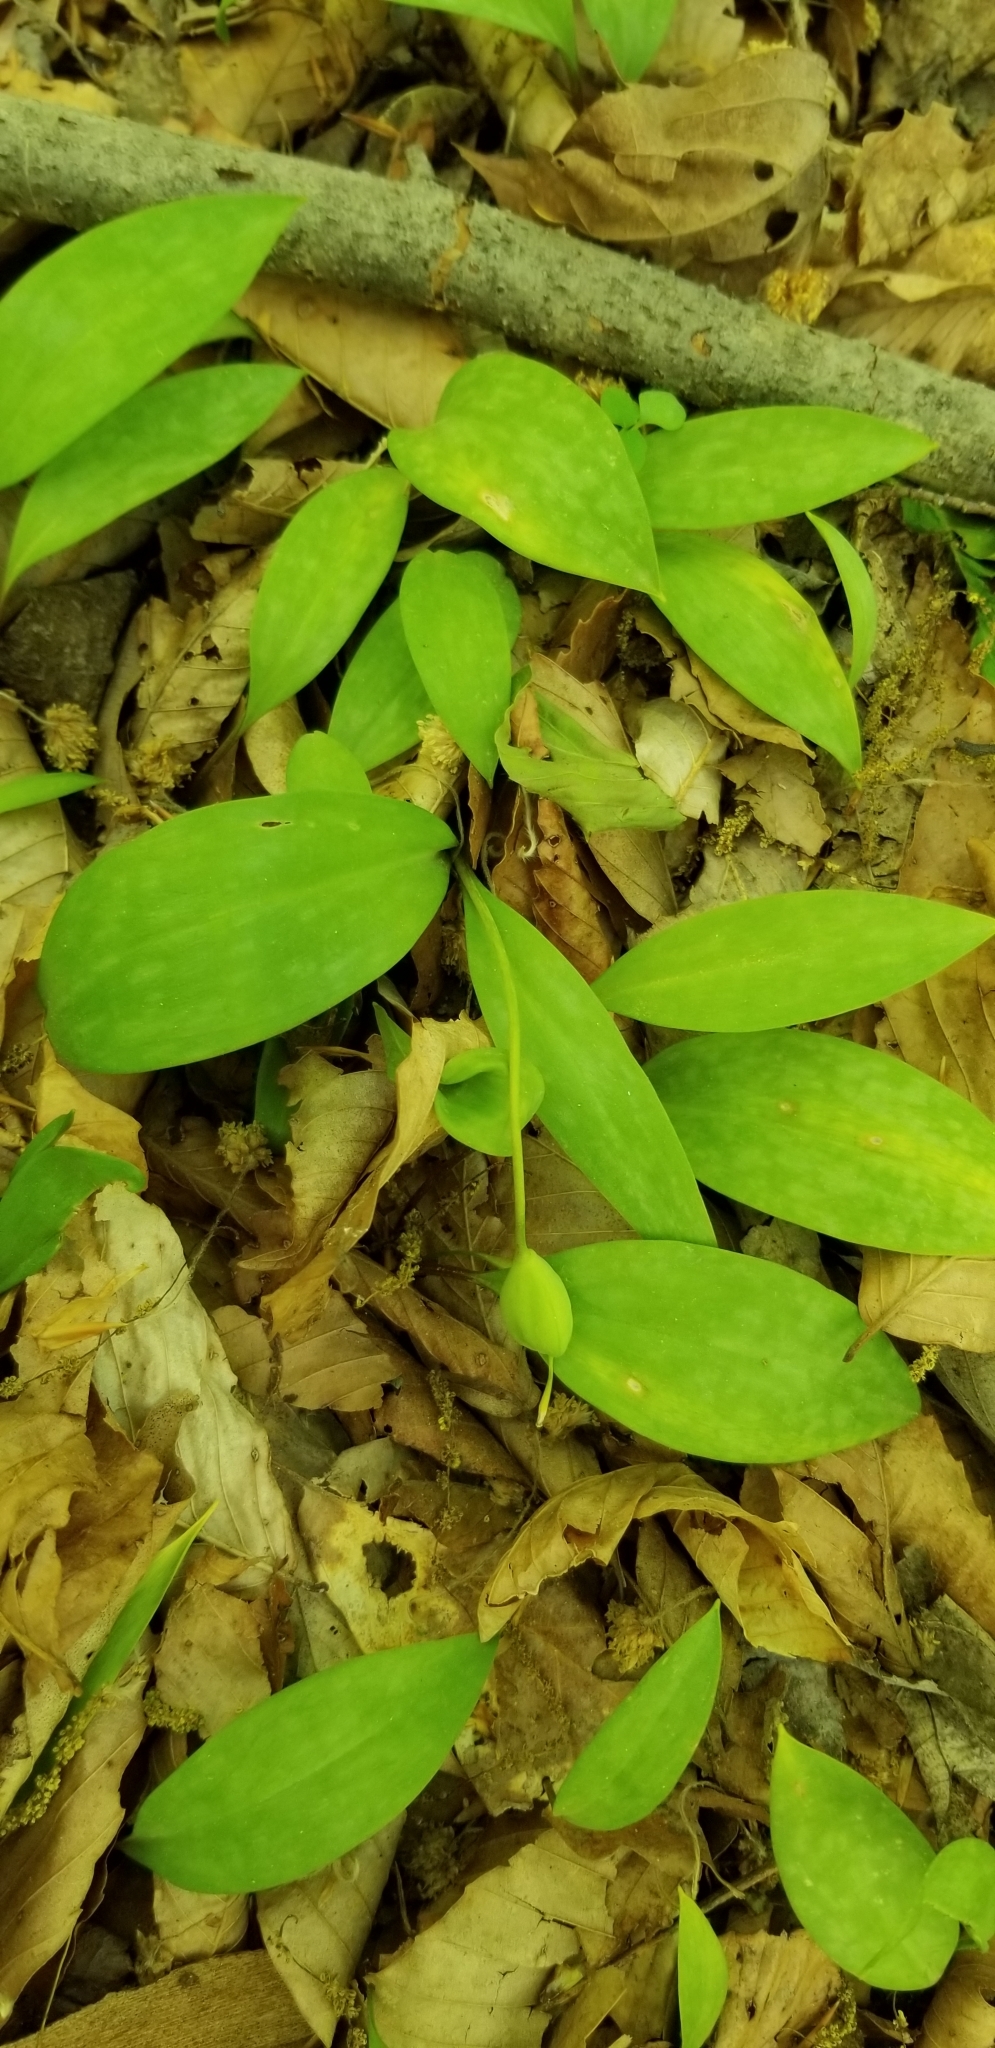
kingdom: Plantae
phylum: Tracheophyta
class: Liliopsida
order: Liliales
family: Liliaceae
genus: Erythronium
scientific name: Erythronium americanum
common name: Yellow adder's-tongue
